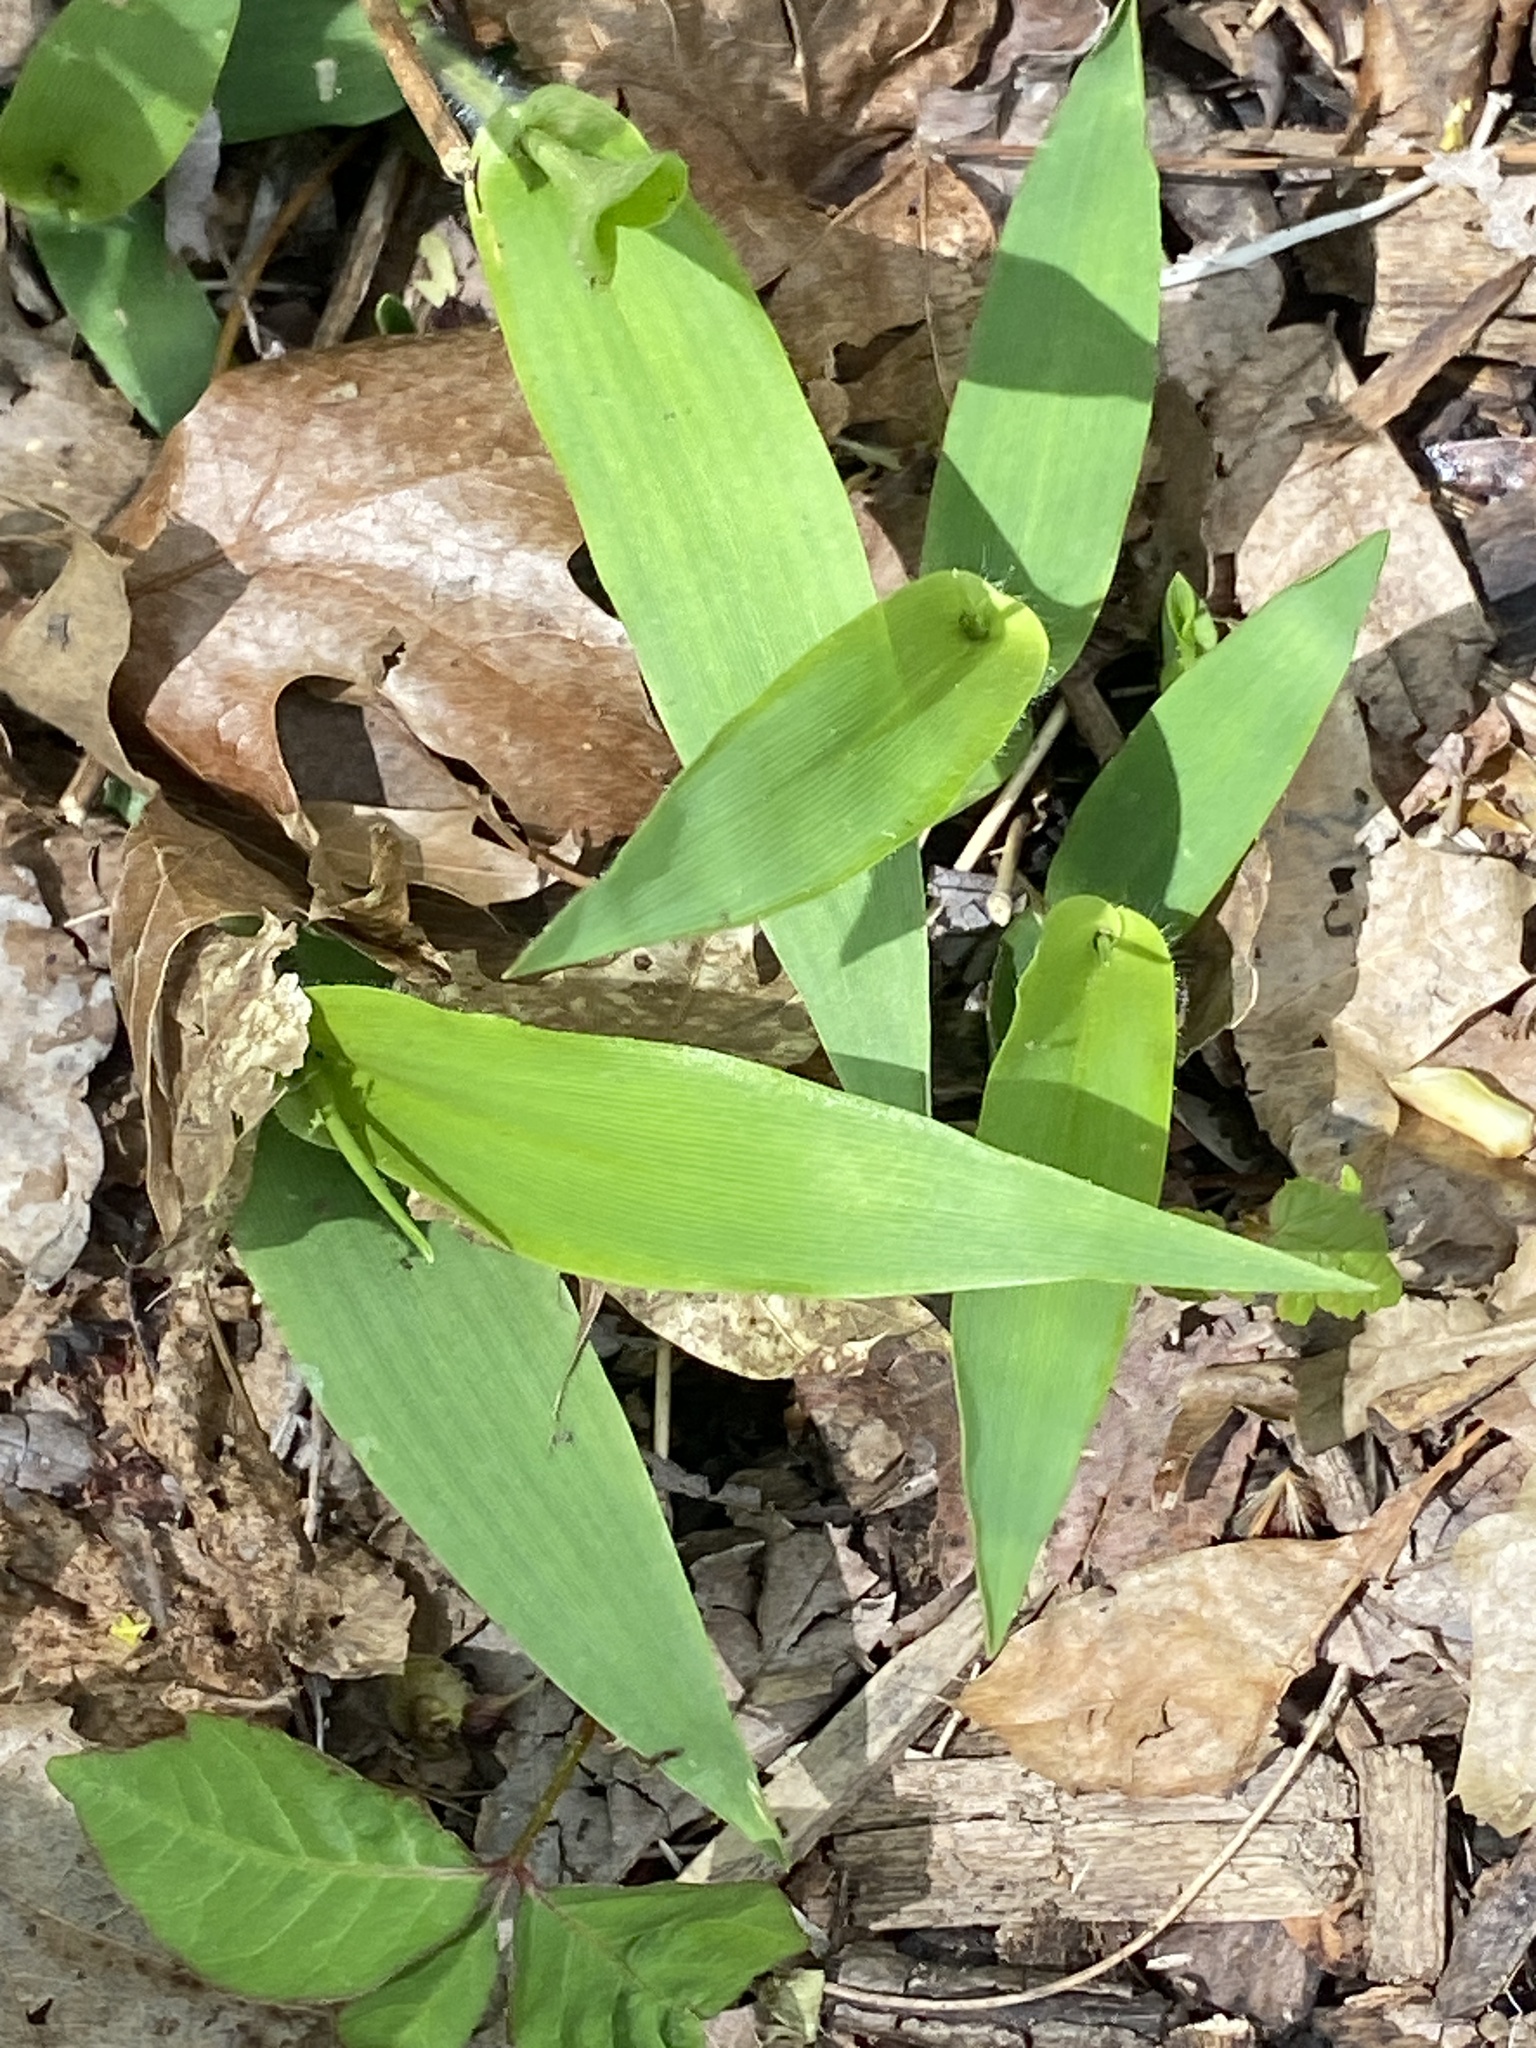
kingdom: Plantae
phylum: Tracheophyta
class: Liliopsida
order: Poales
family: Poaceae
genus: Dichanthelium
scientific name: Dichanthelium clandestinum
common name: Deer-tongue grass
